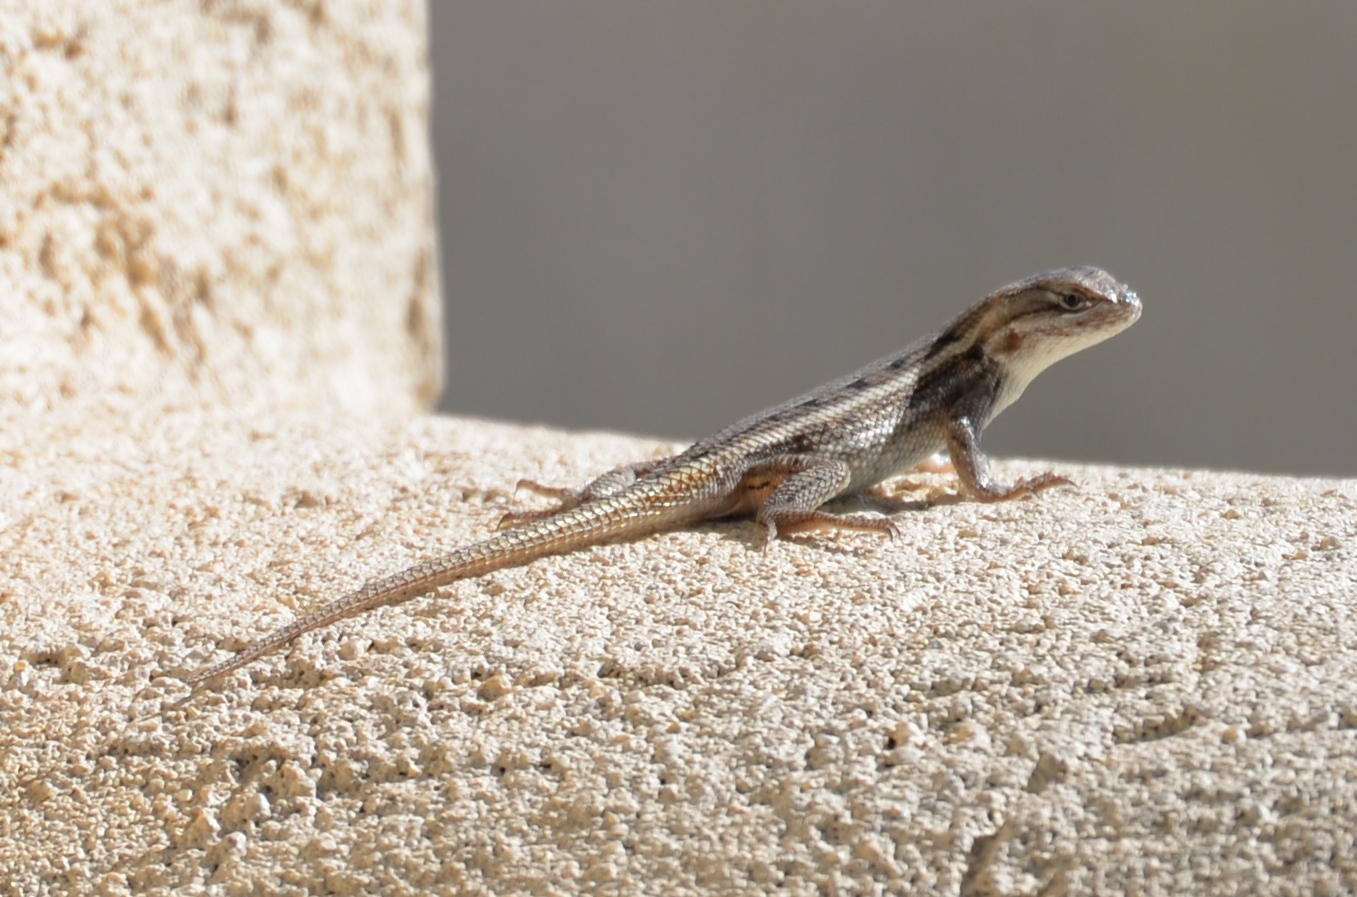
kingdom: Animalia
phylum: Chordata
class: Squamata
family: Phrynosomatidae
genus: Sceloporus
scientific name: Sceloporus consobrinus
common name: Southern prairie lizard
